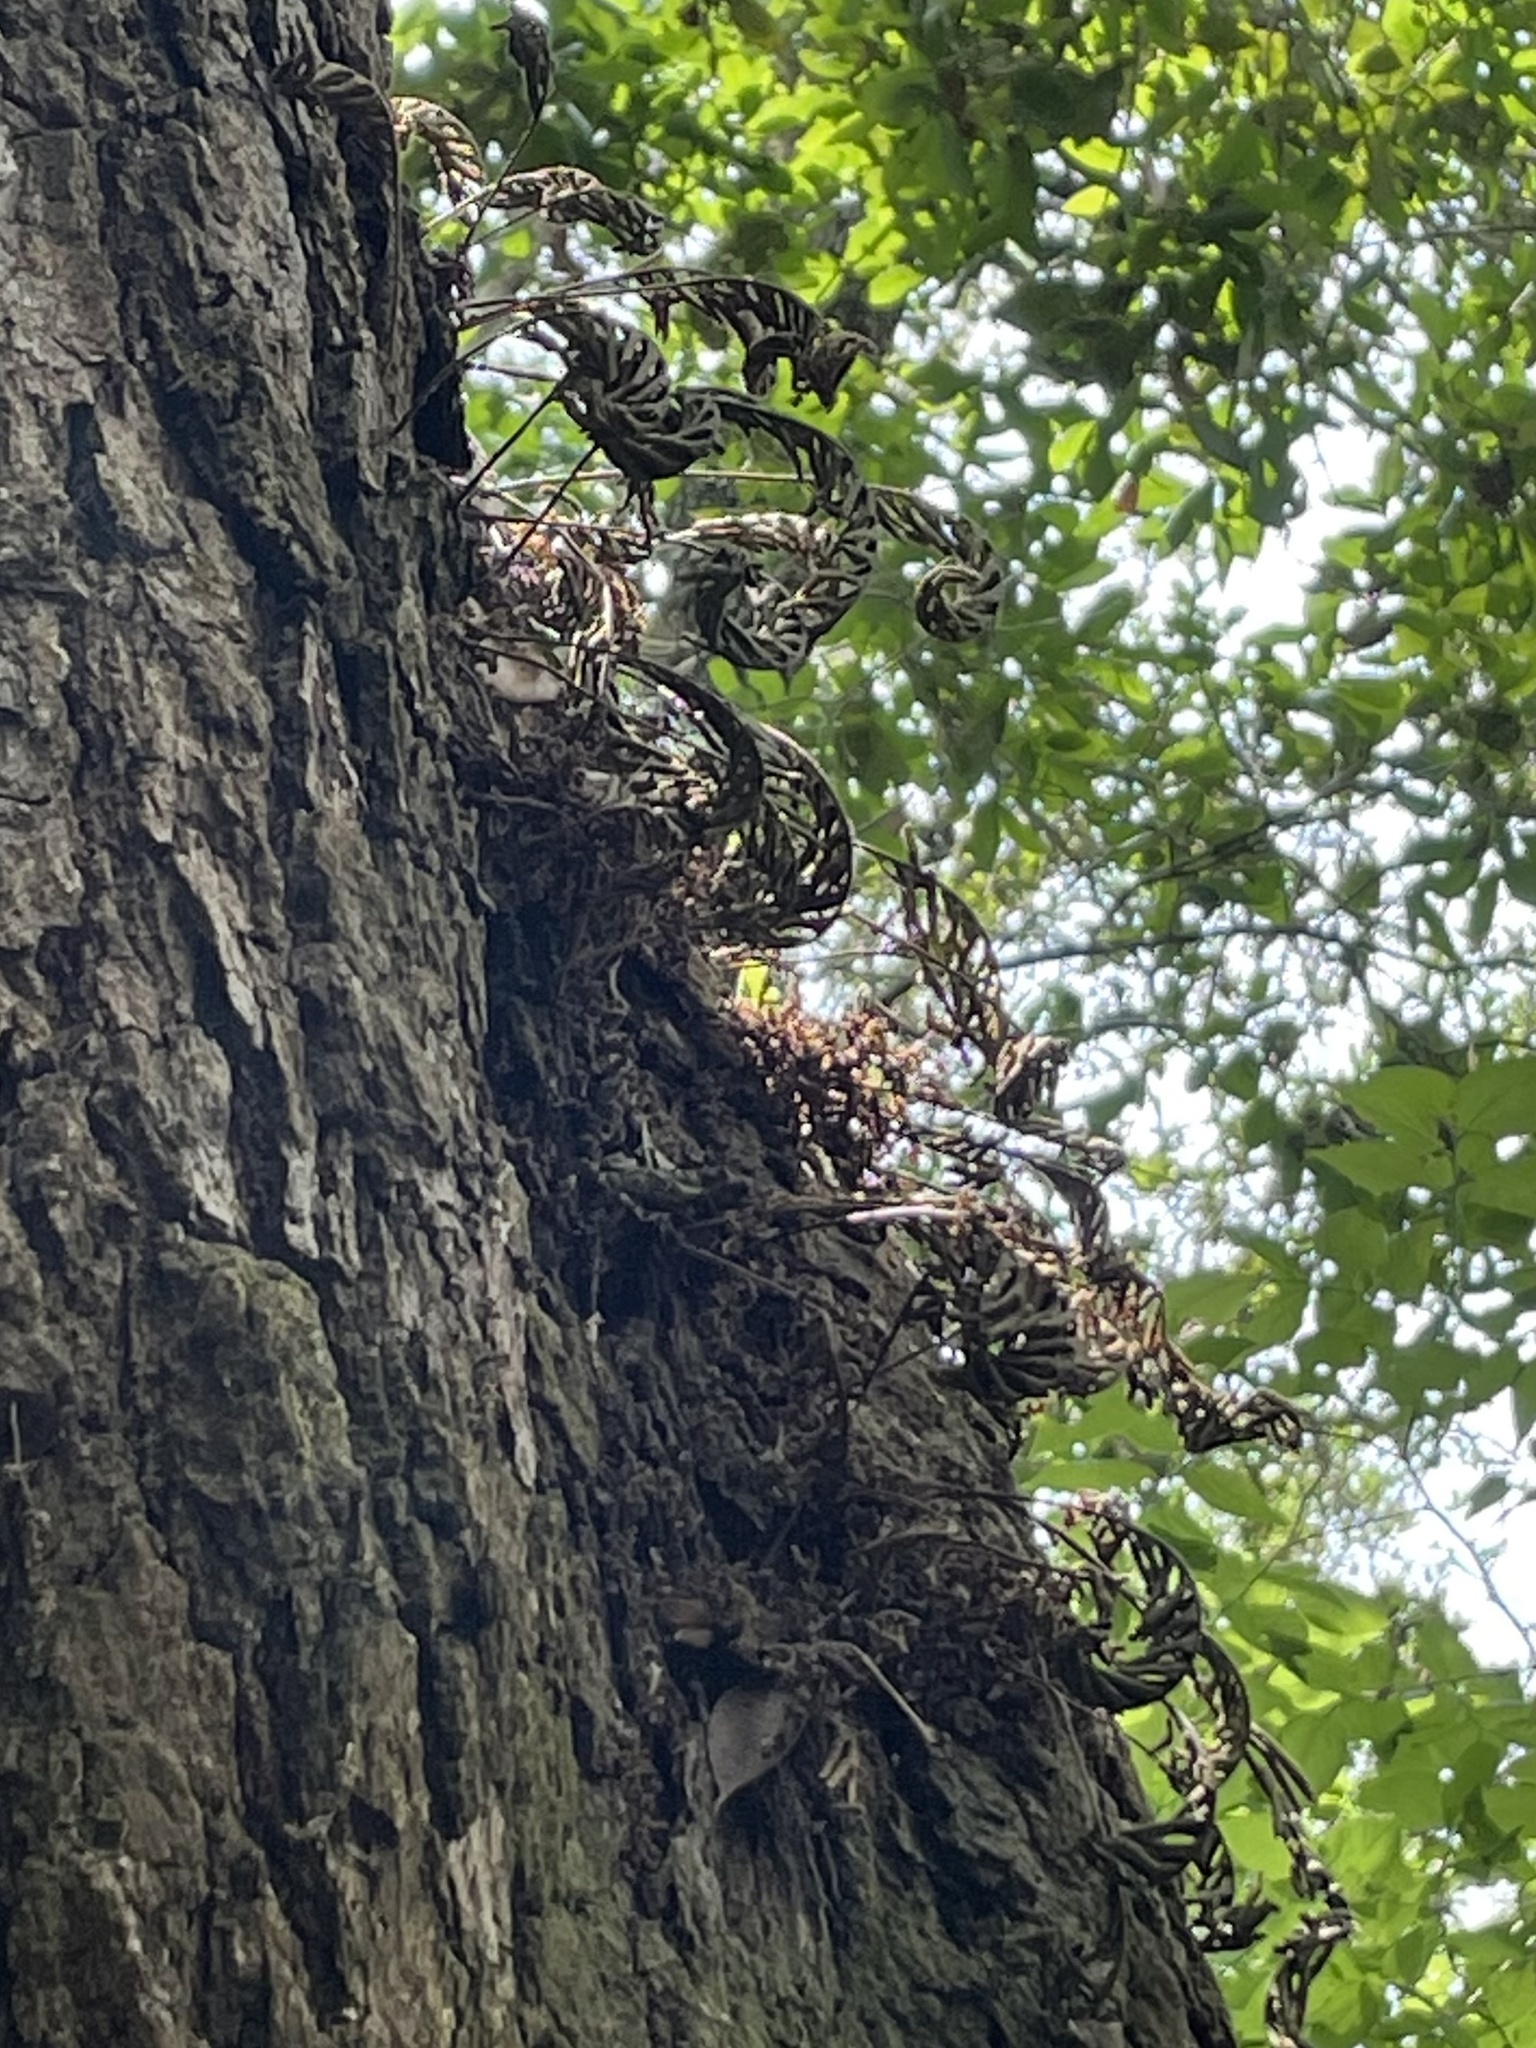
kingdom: Plantae
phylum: Tracheophyta
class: Polypodiopsida
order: Polypodiales
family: Polypodiaceae
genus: Pleopeltis
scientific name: Pleopeltis michauxiana
